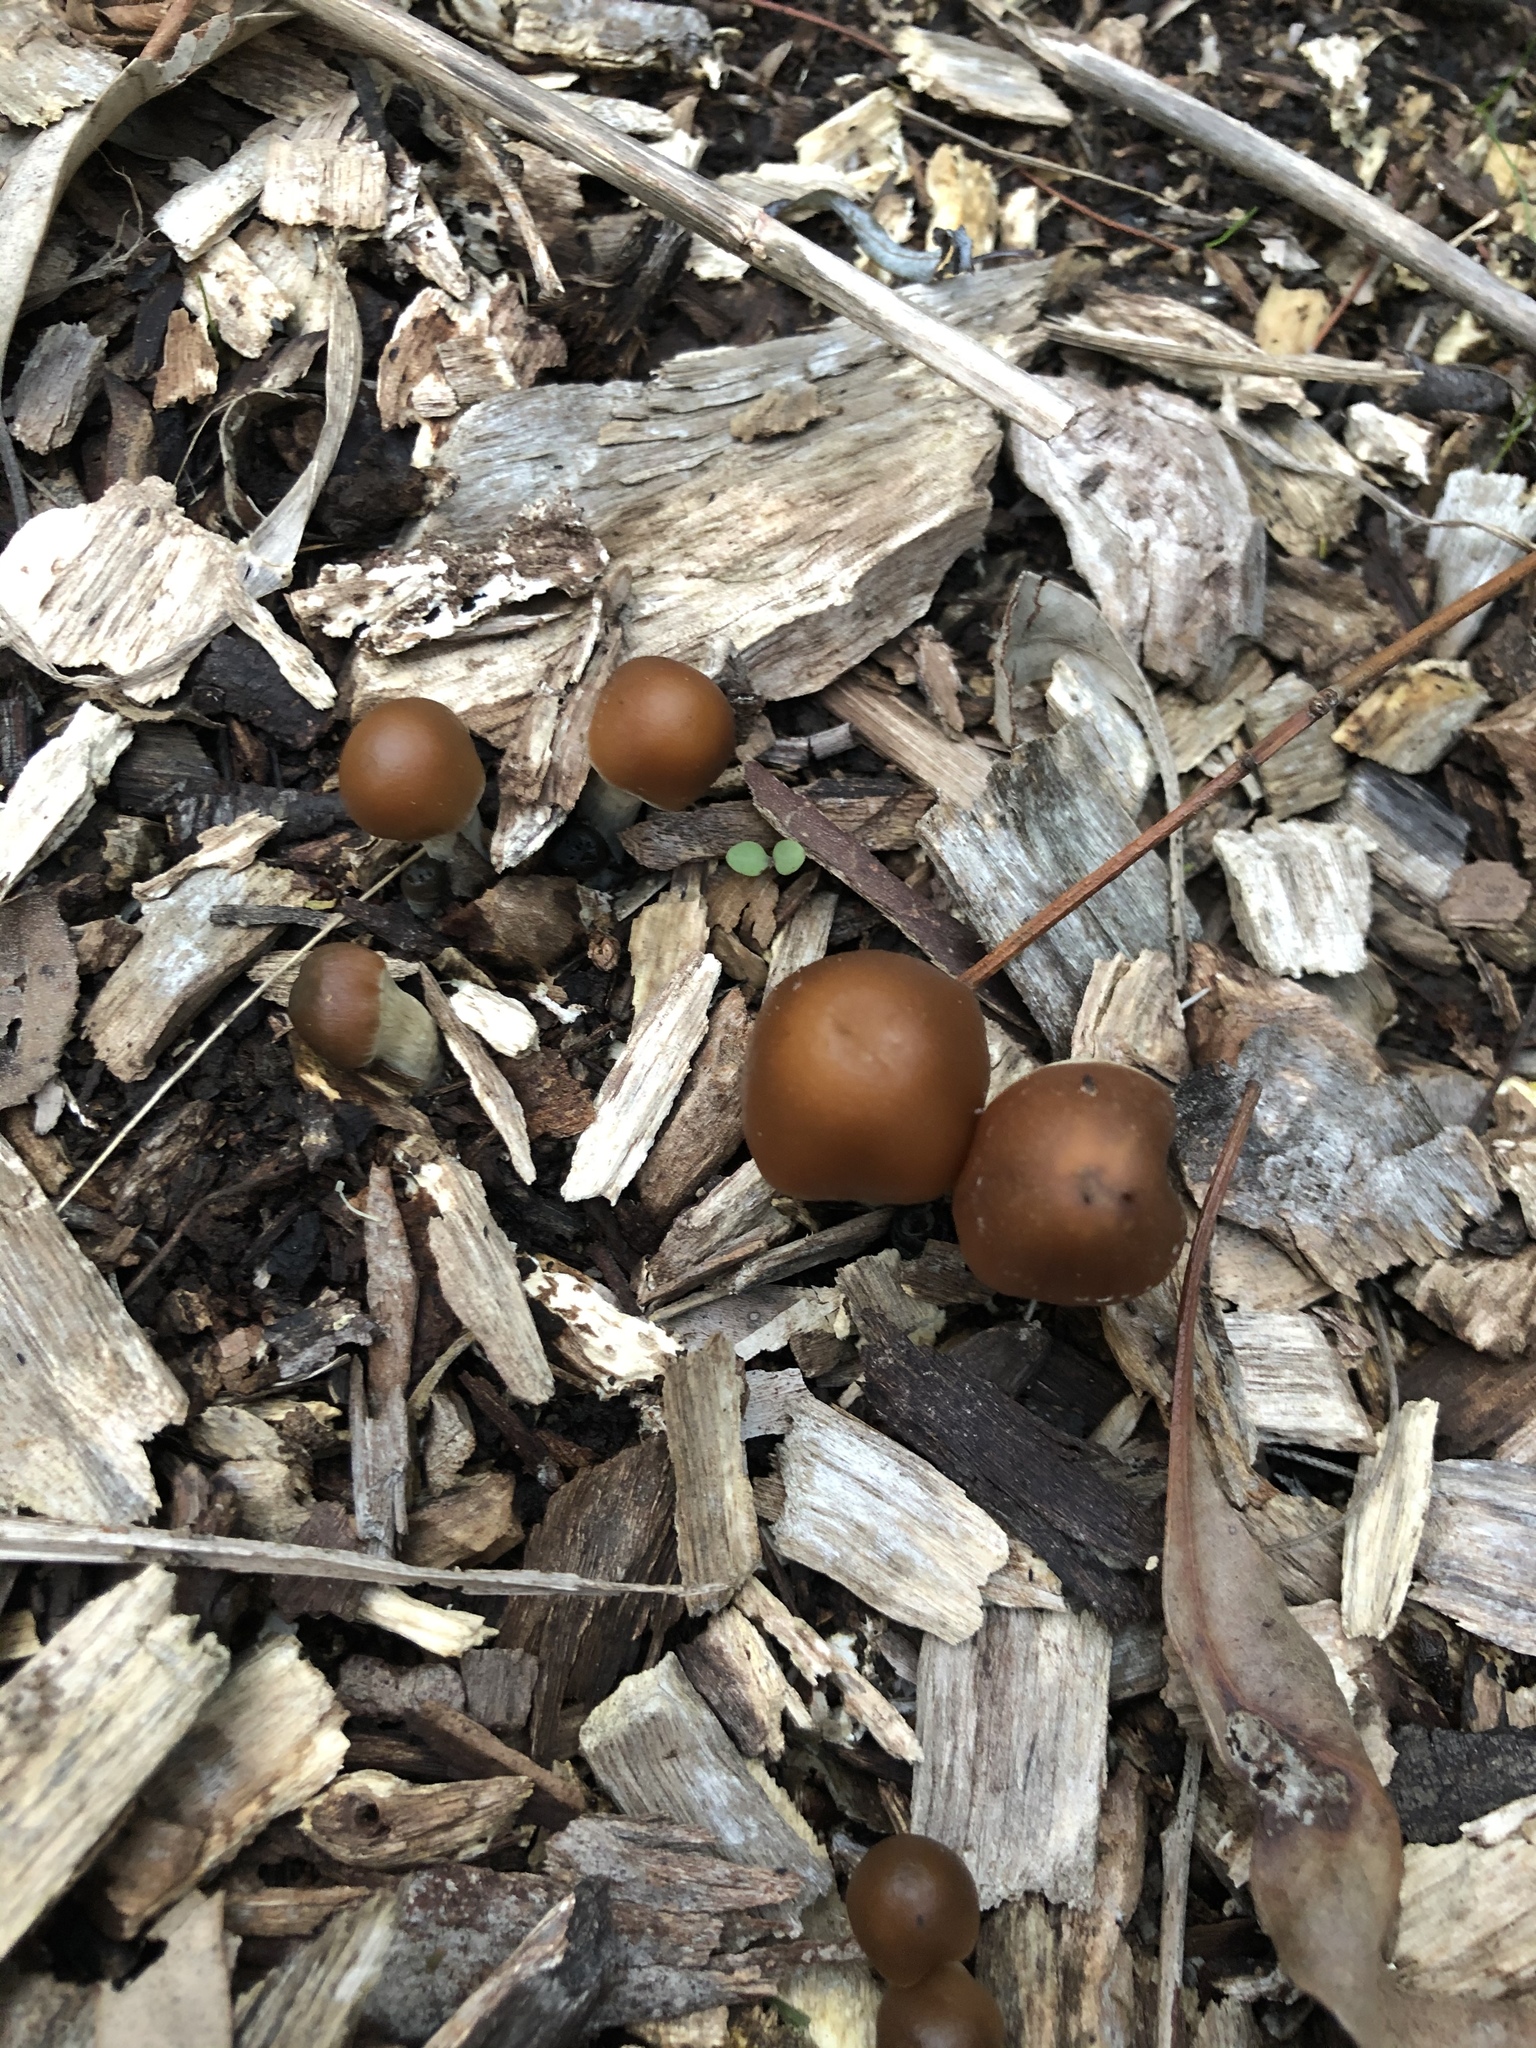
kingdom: Fungi
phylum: Basidiomycota
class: Agaricomycetes
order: Agaricales
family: Hymenogastraceae
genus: Psilocybe
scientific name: Psilocybe subaeruginosa
